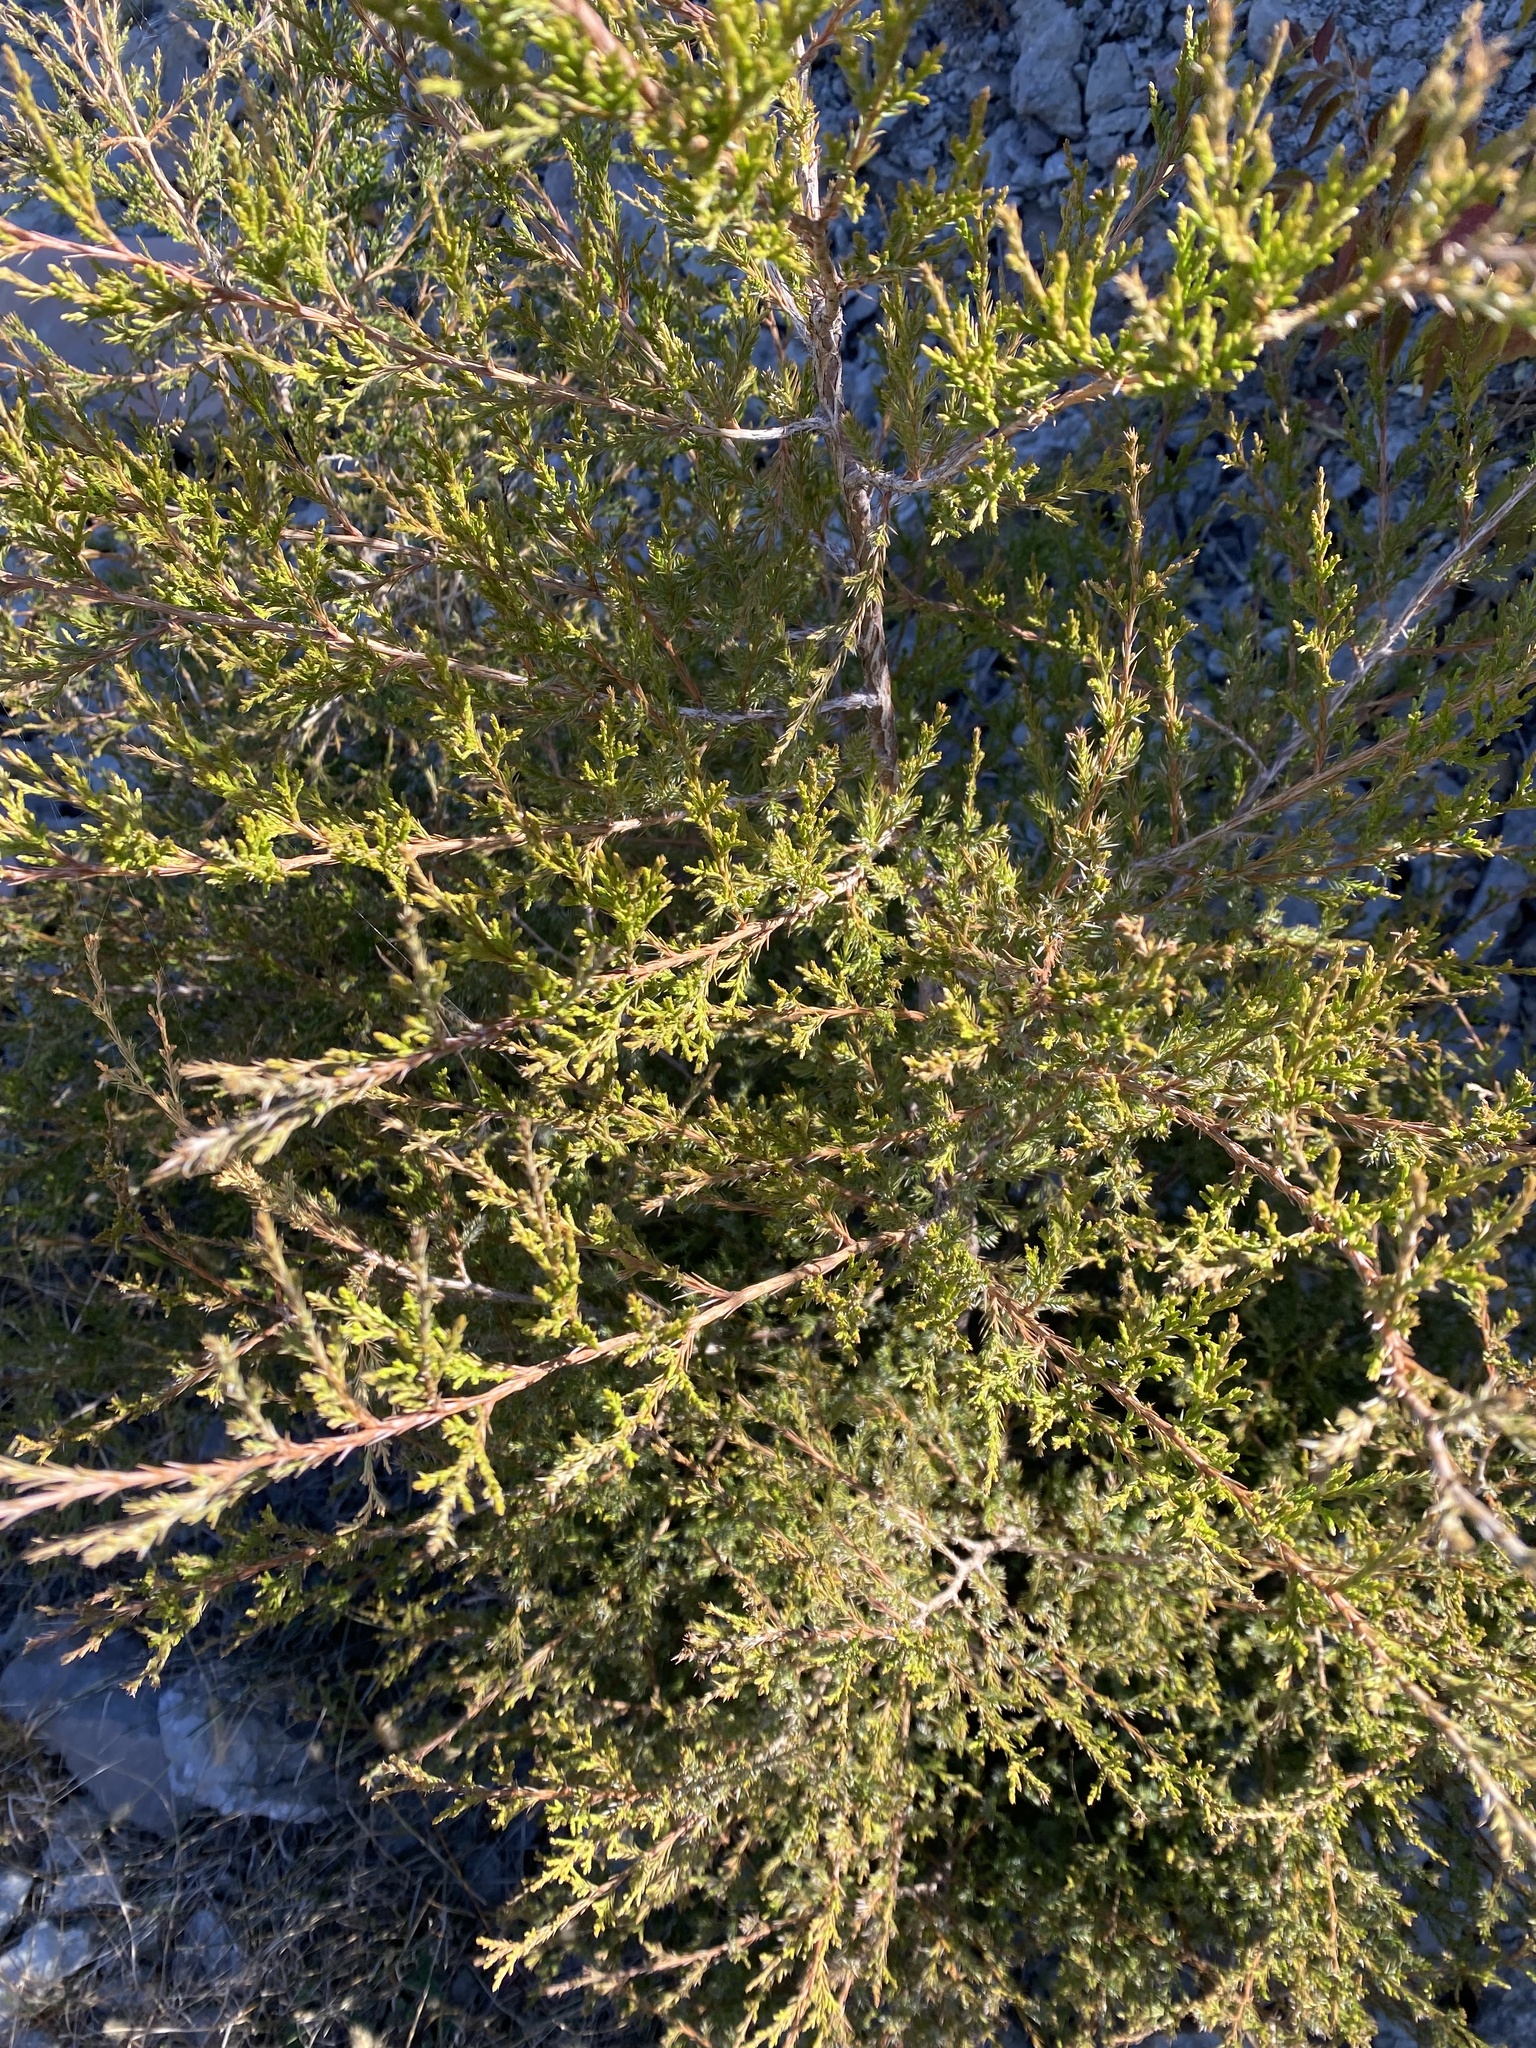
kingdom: Plantae
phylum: Tracheophyta
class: Pinopsida
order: Pinales
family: Cupressaceae
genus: Juniperus
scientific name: Juniperus virginiana
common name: Red juniper
